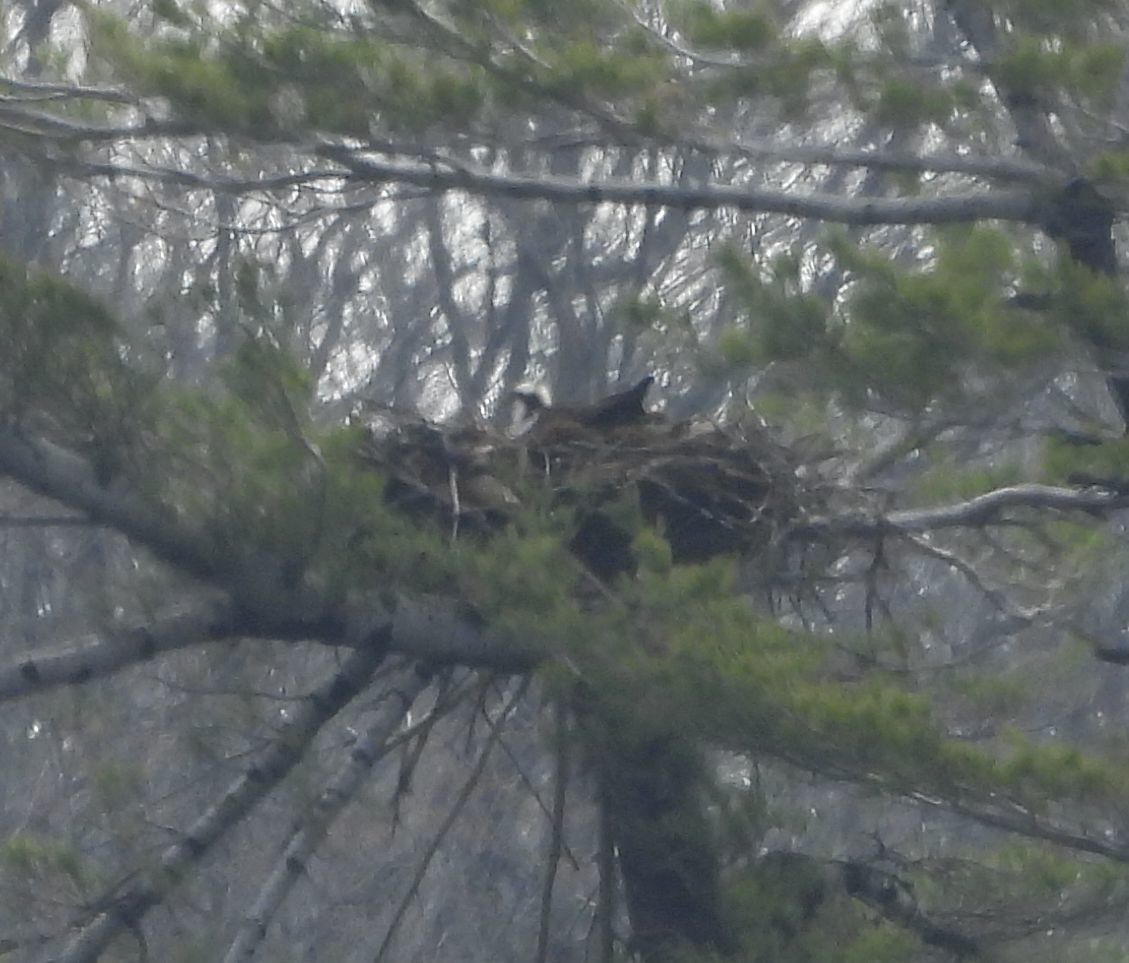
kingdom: Animalia
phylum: Chordata
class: Aves
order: Accipitriformes
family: Pandionidae
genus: Pandion
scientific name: Pandion haliaetus
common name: Osprey
